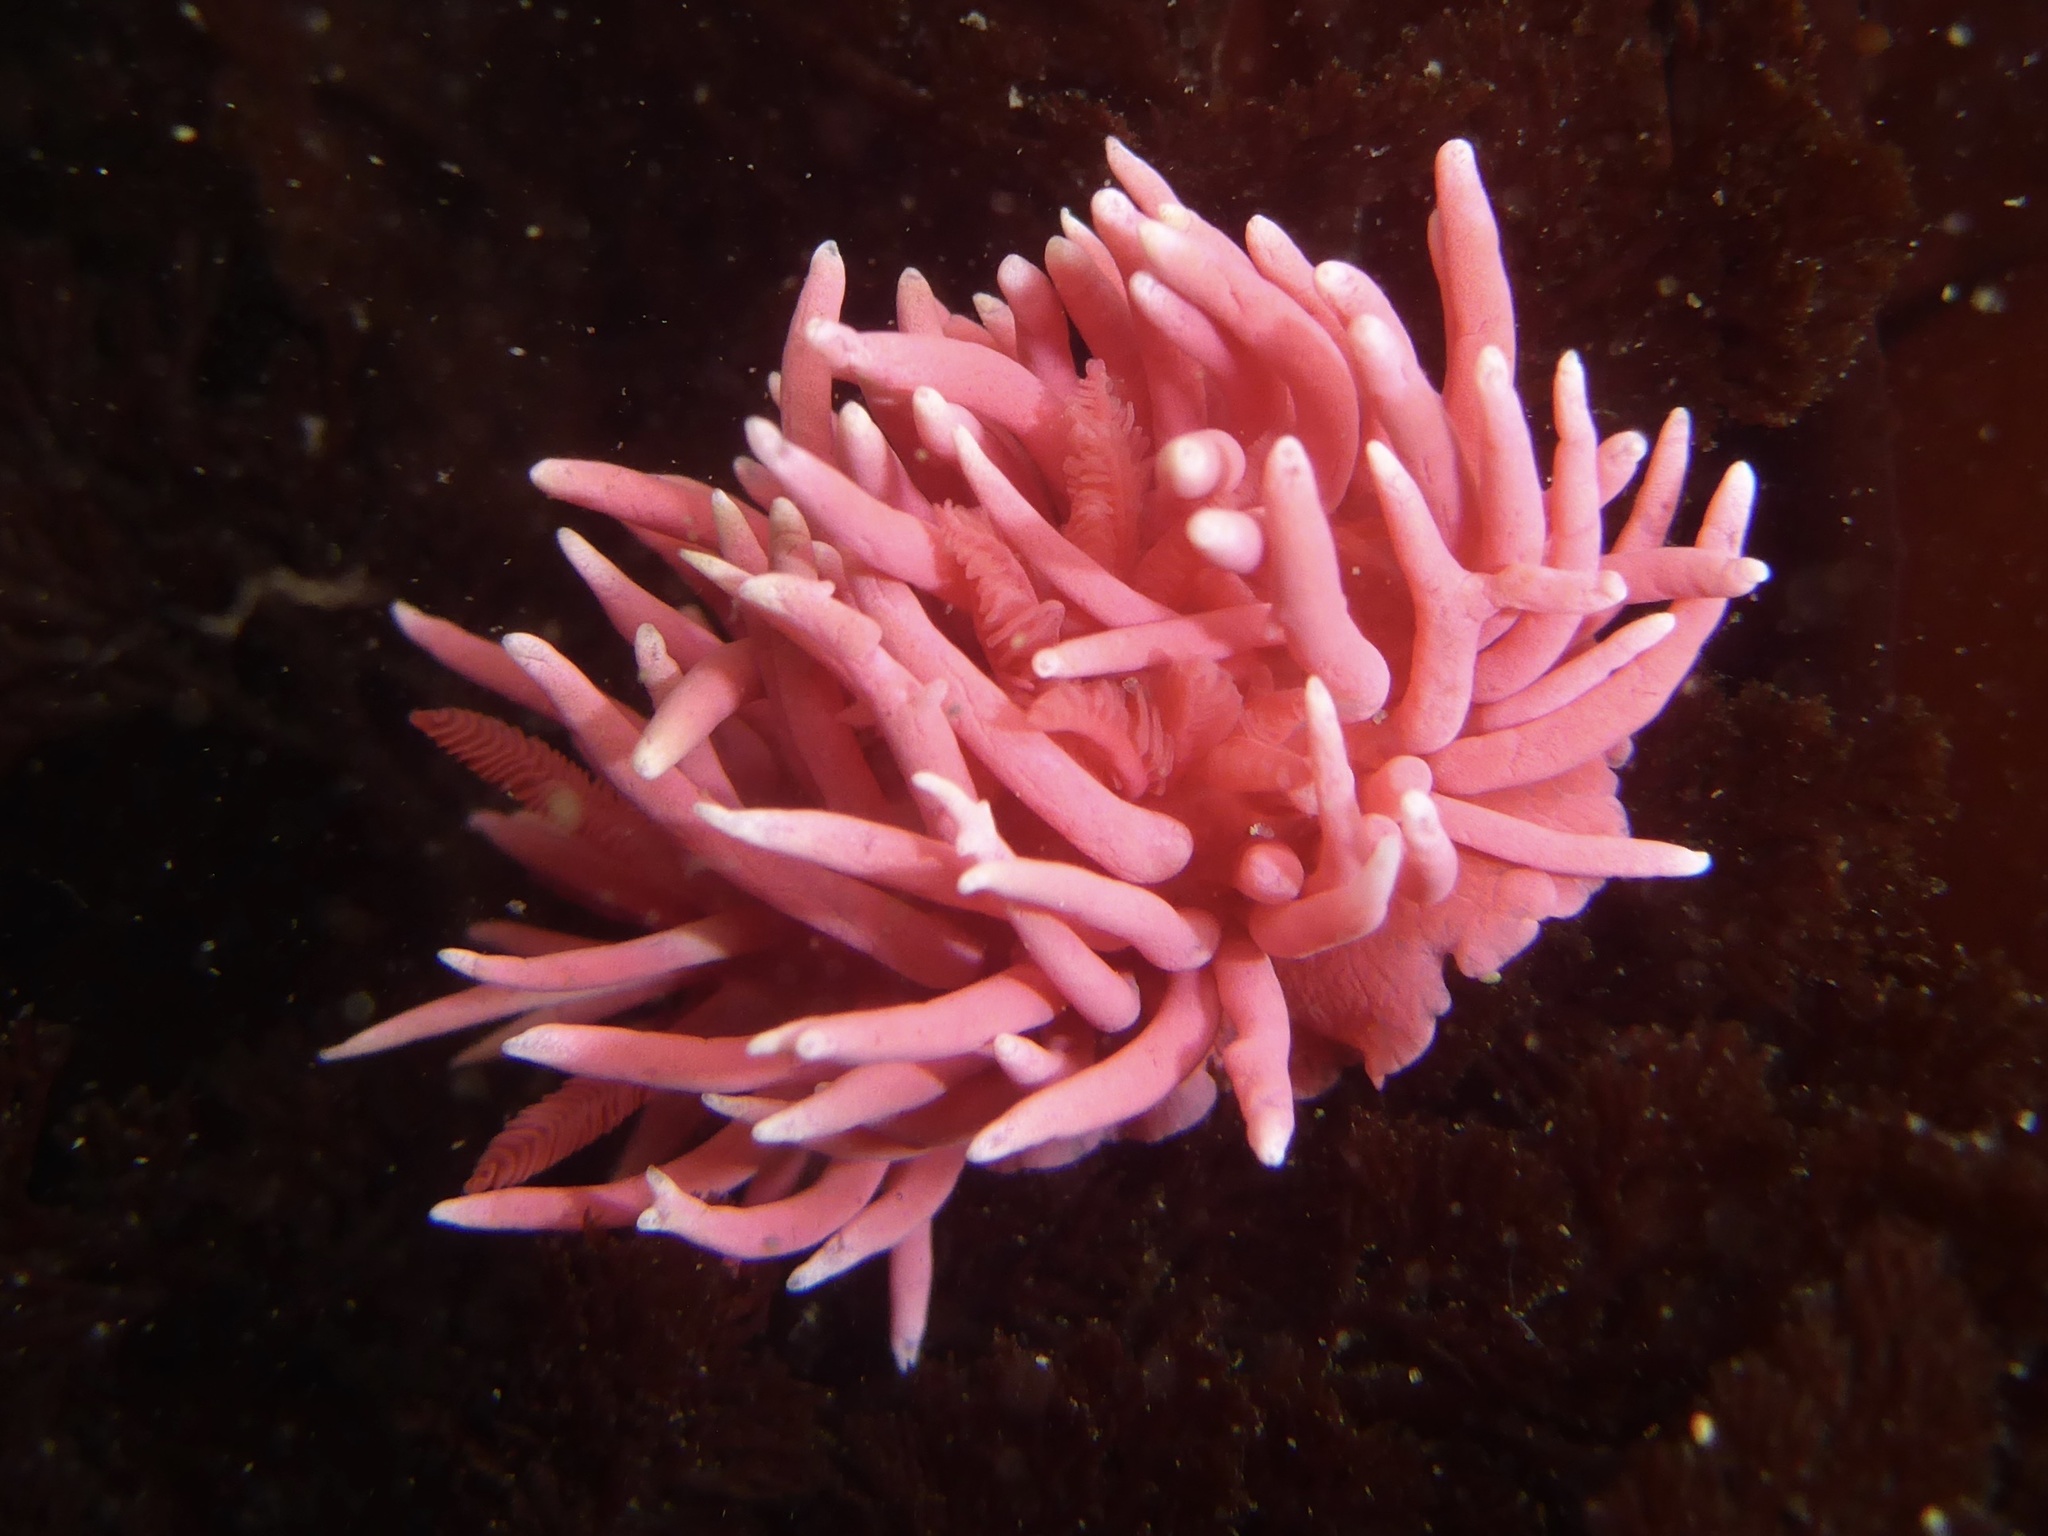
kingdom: Animalia
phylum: Mollusca
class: Gastropoda
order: Nudibranchia
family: Goniodorididae
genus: Okenia
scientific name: Okenia
